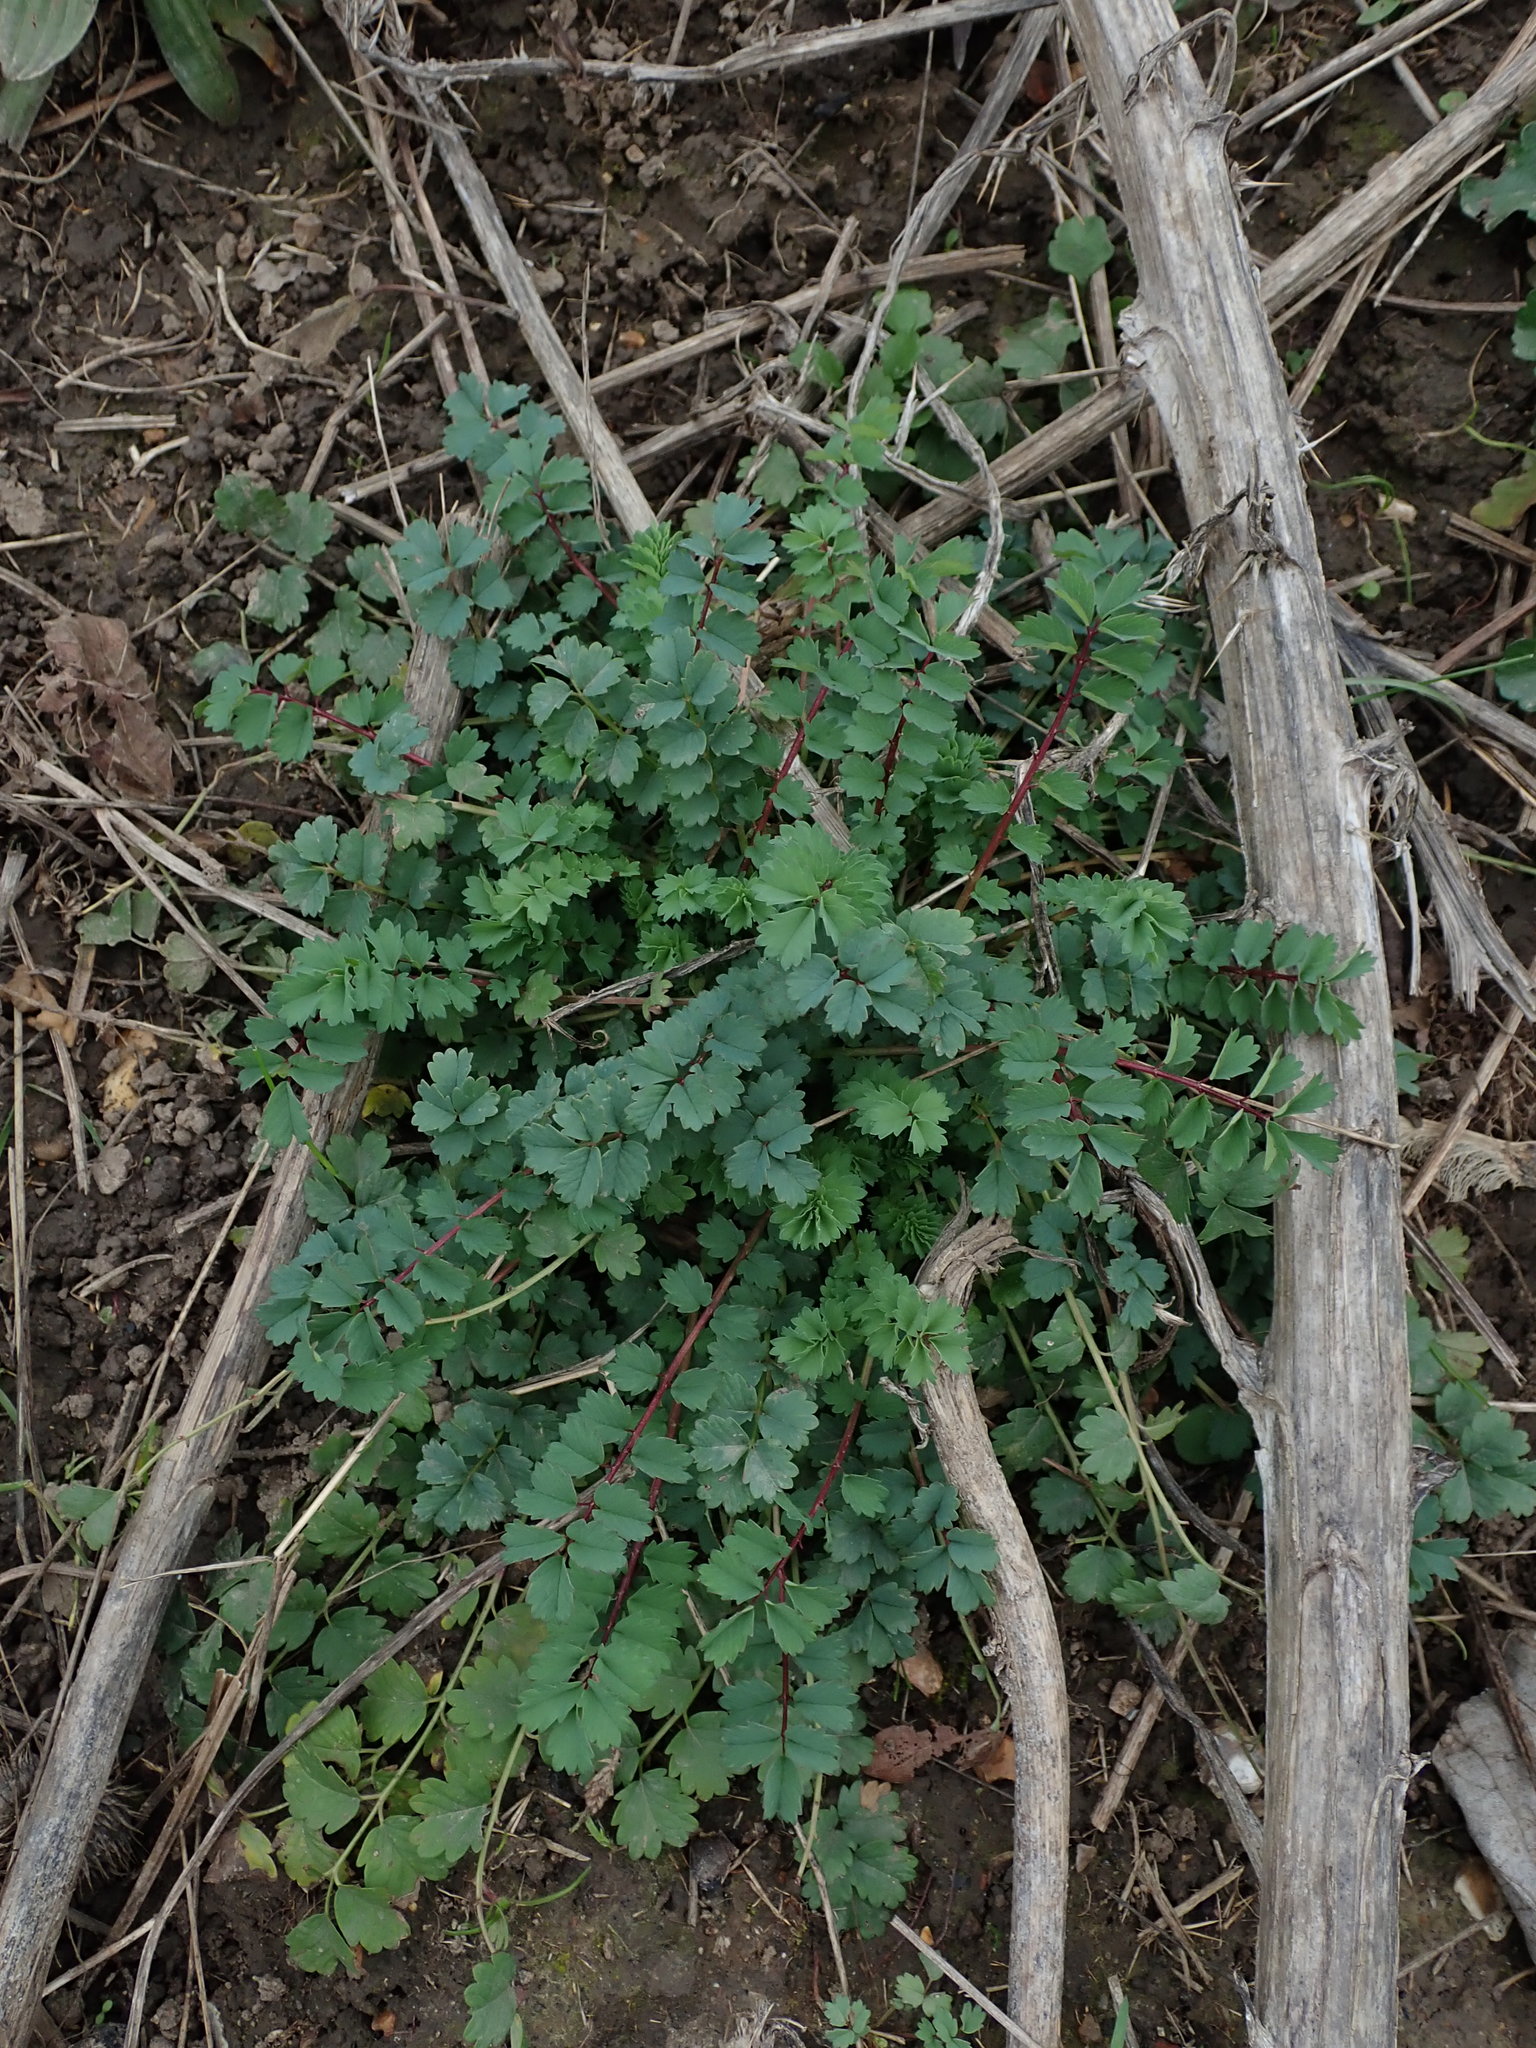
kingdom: Plantae
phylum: Tracheophyta
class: Magnoliopsida
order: Rosales
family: Rosaceae
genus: Poterium
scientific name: Poterium sanguisorba
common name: Salad burnet
